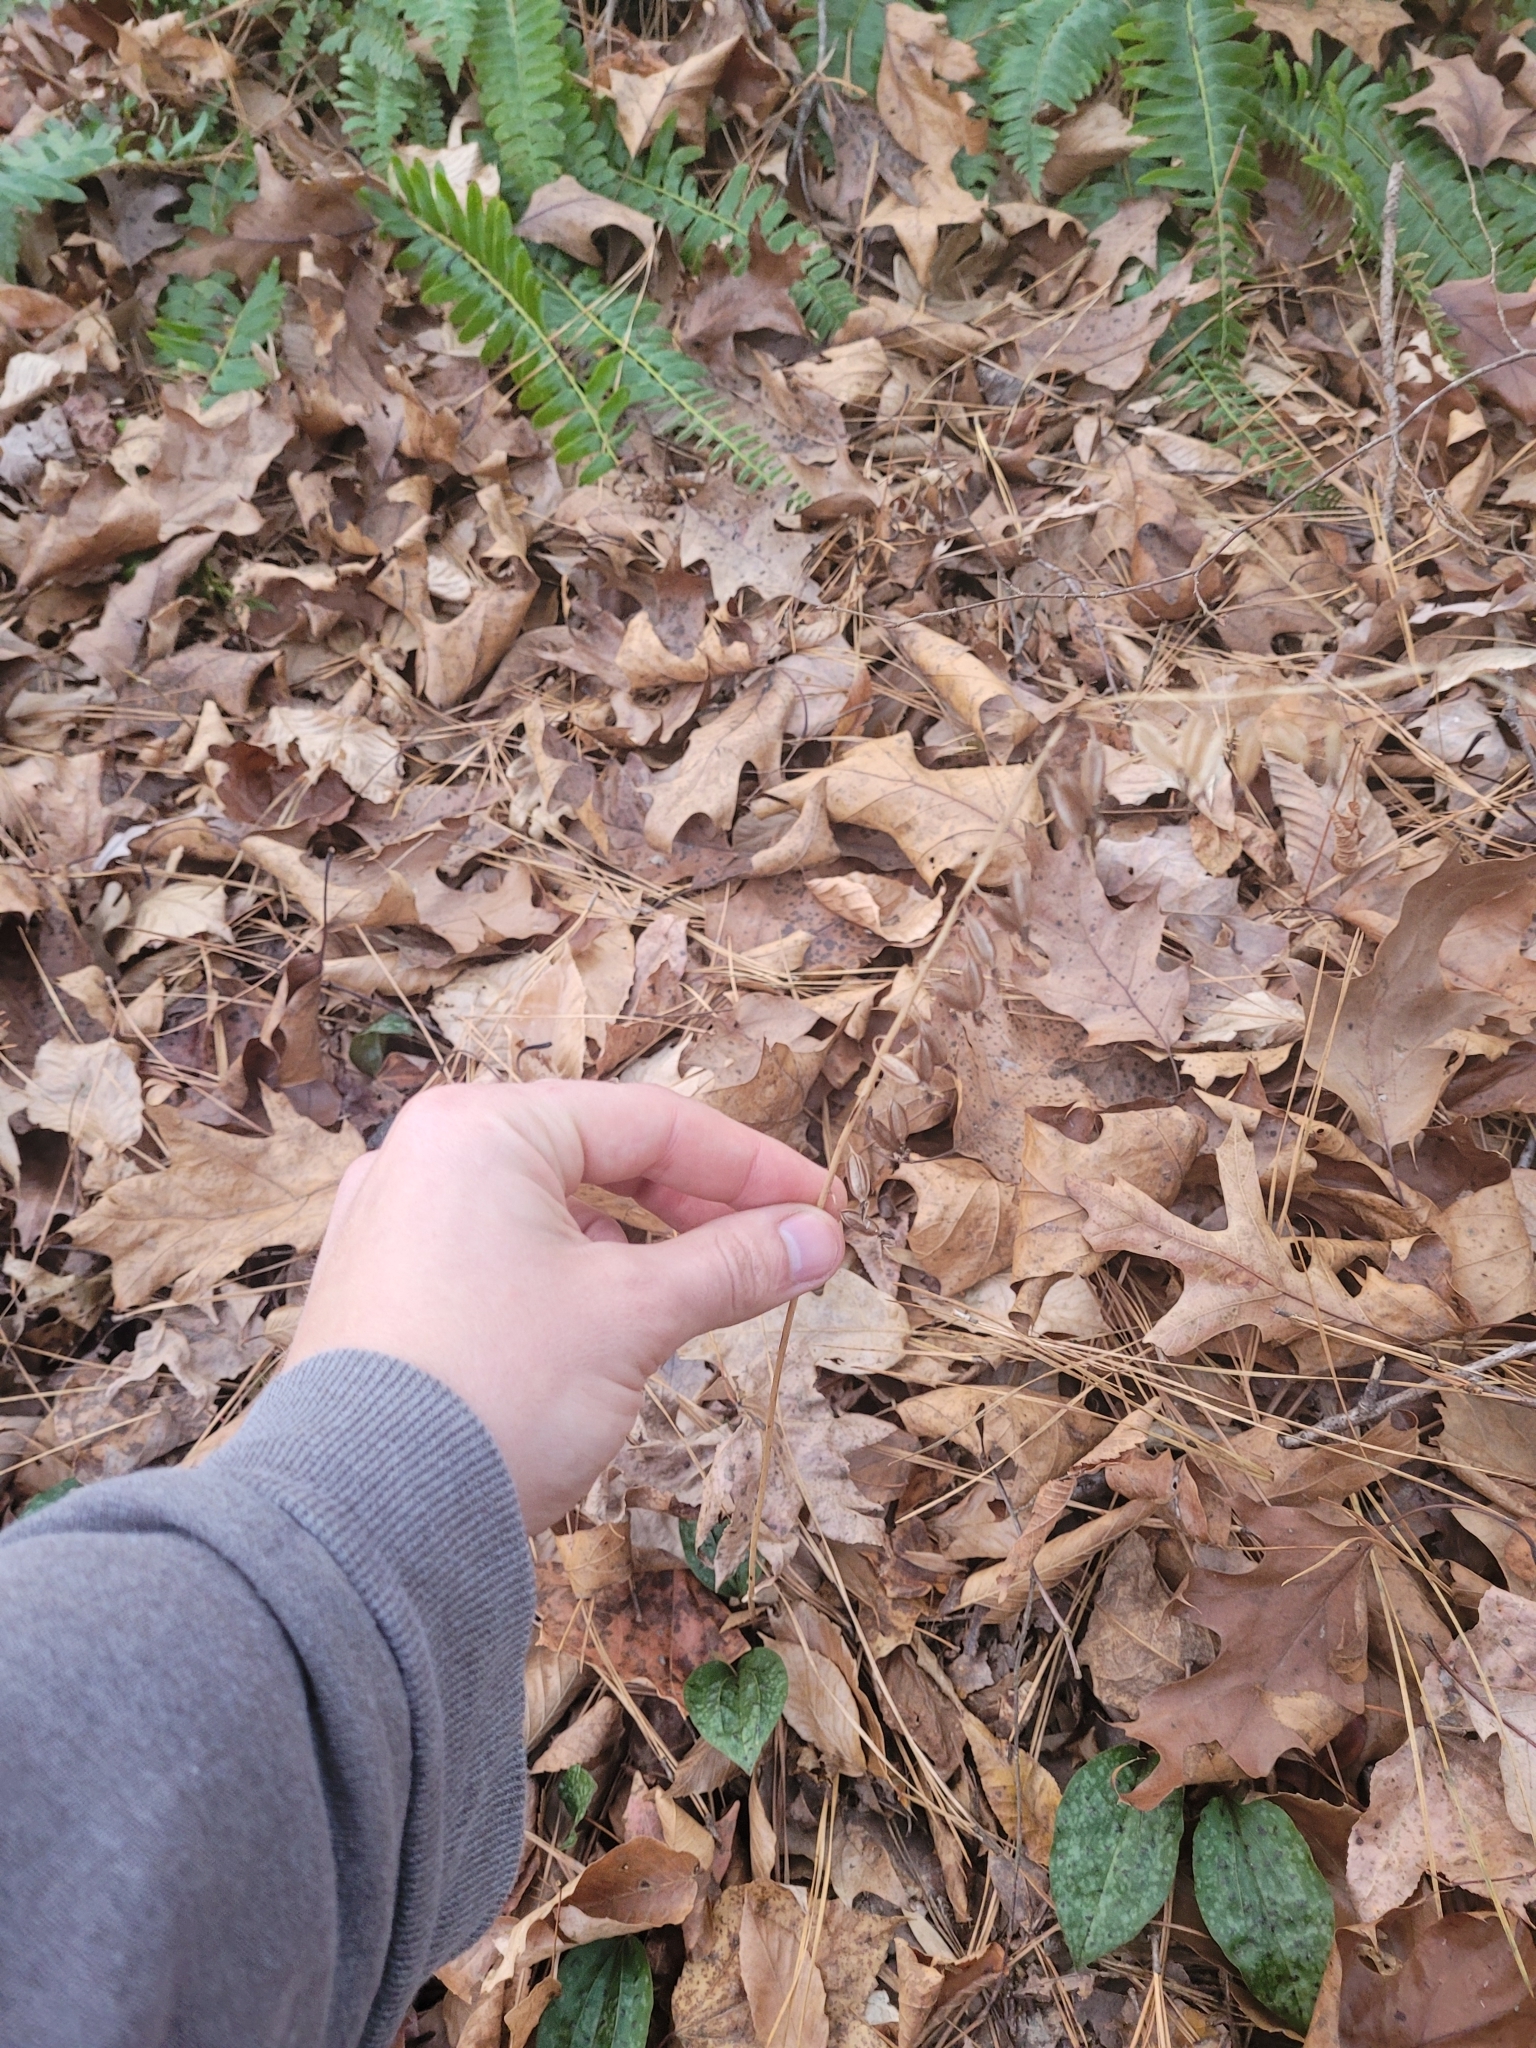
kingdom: Plantae
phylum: Tracheophyta
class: Liliopsida
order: Asparagales
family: Orchidaceae
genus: Tipularia
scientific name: Tipularia discolor
